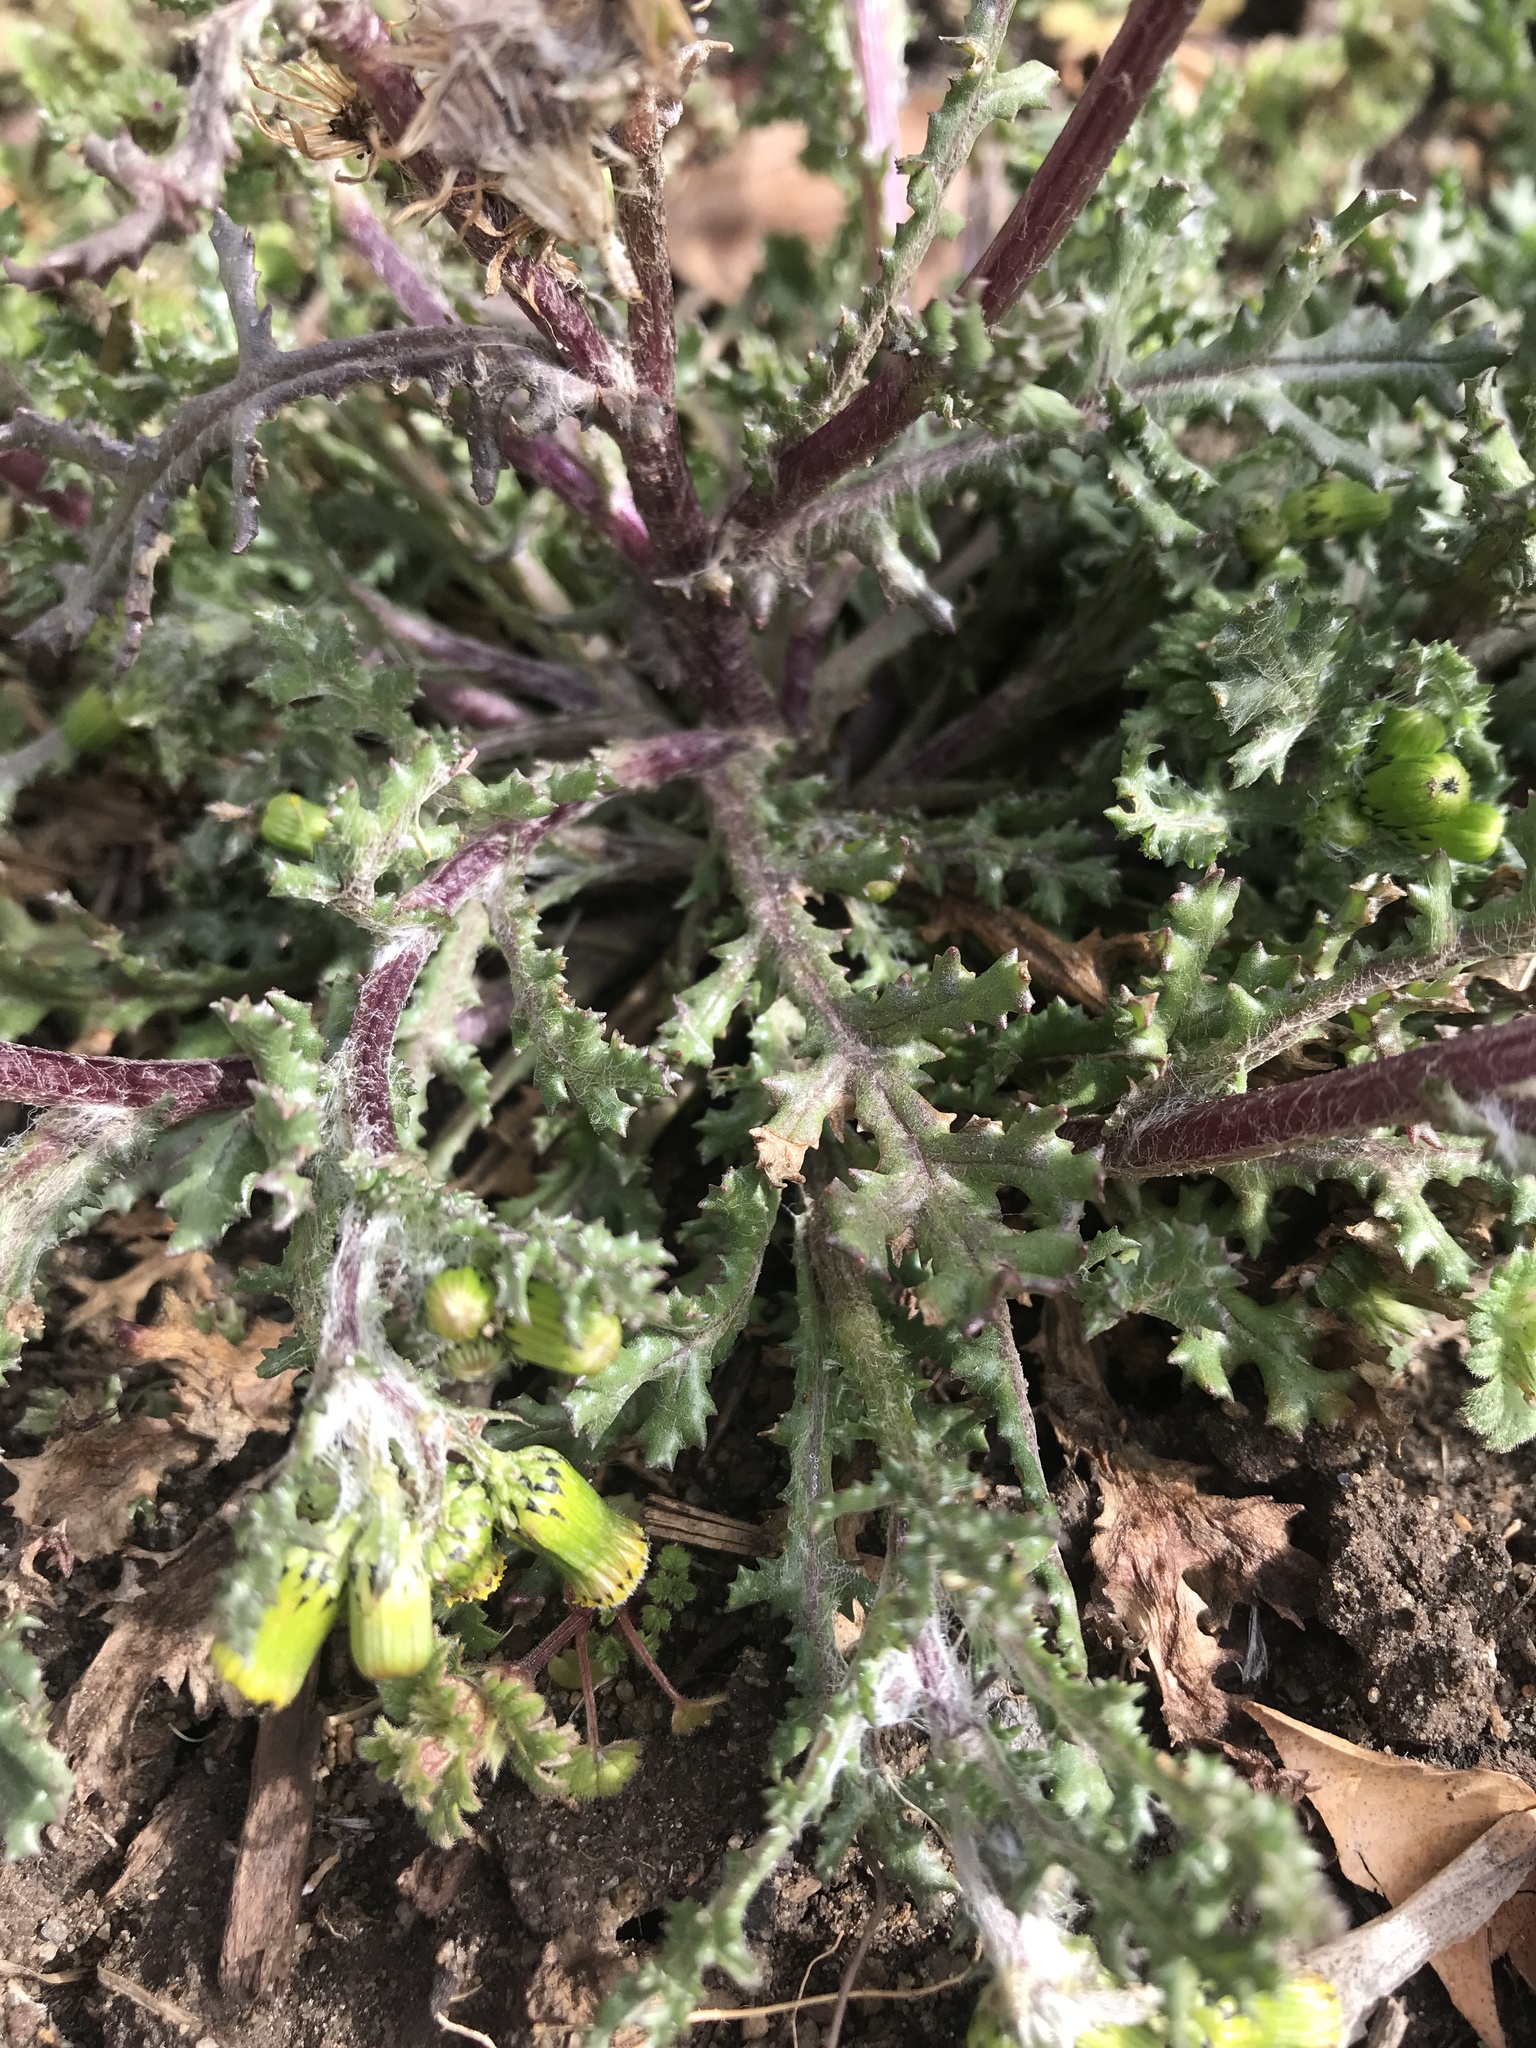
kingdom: Plantae
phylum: Tracheophyta
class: Magnoliopsida
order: Asterales
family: Asteraceae
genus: Senecio
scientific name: Senecio vulgaris
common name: Old-man-in-the-spring
